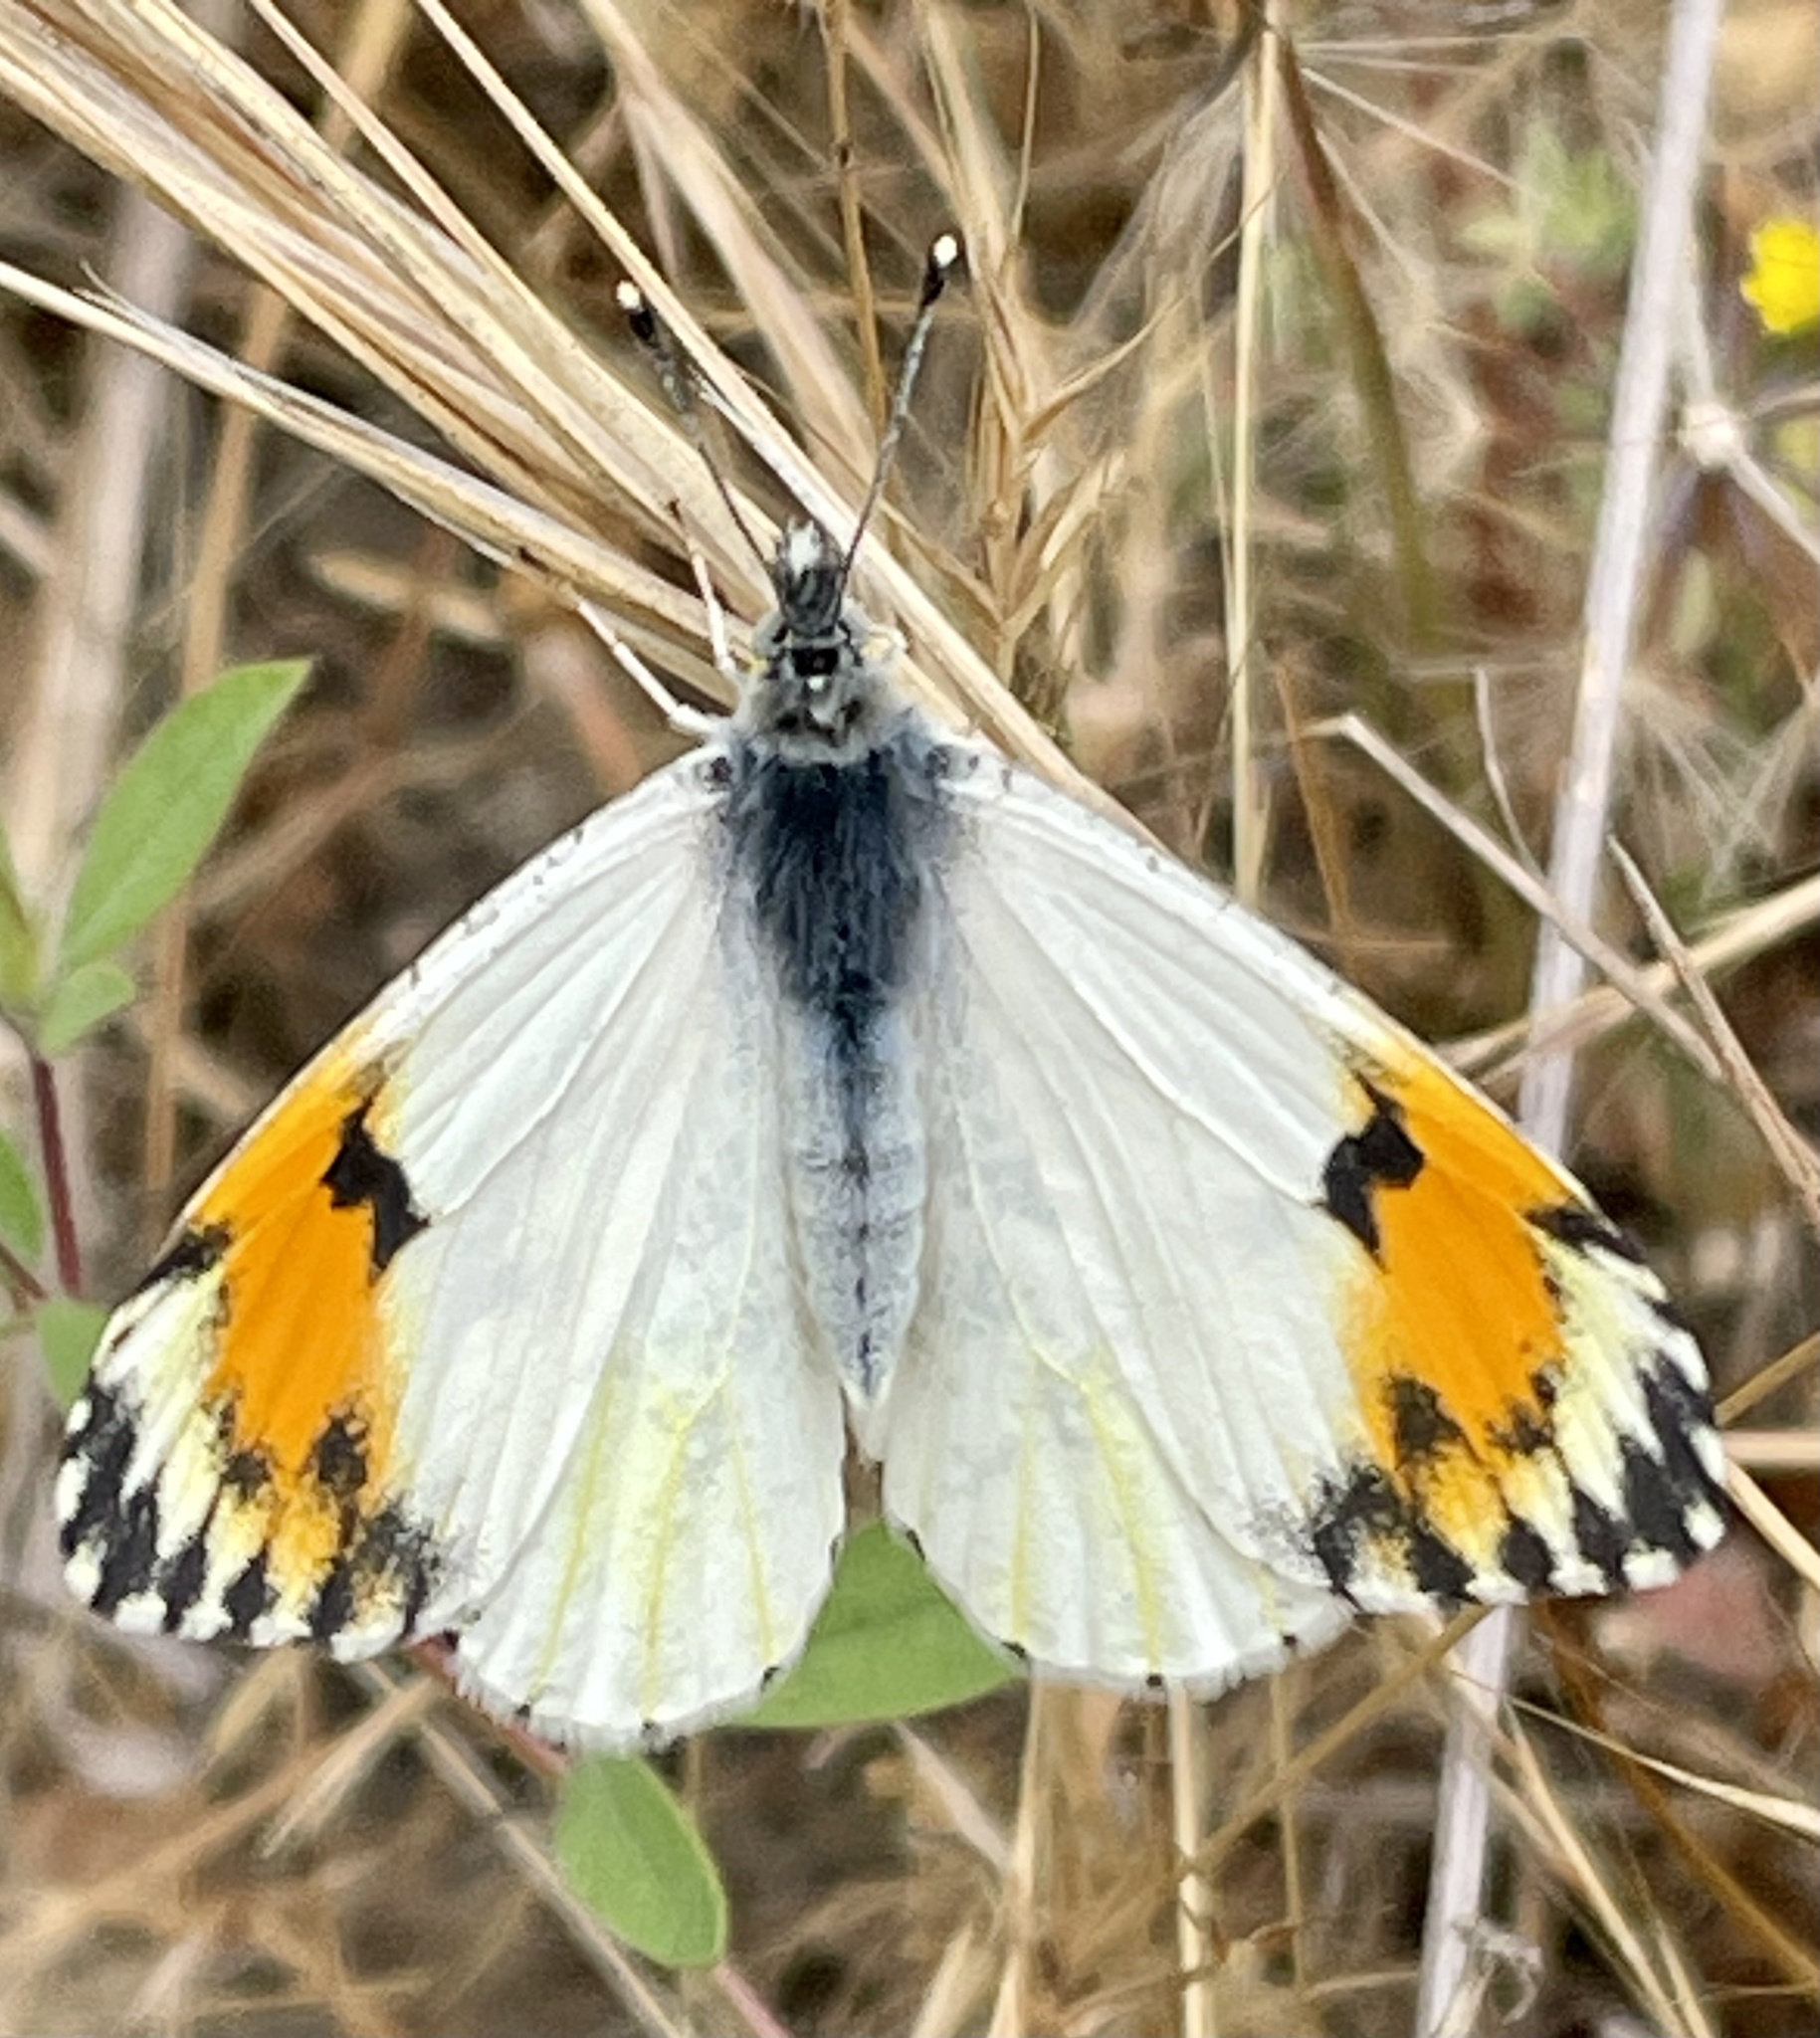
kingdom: Animalia
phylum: Arthropoda
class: Insecta
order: Lepidoptera
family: Pieridae
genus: Anthocharis
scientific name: Anthocharis sara
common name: Sara's orangetip
